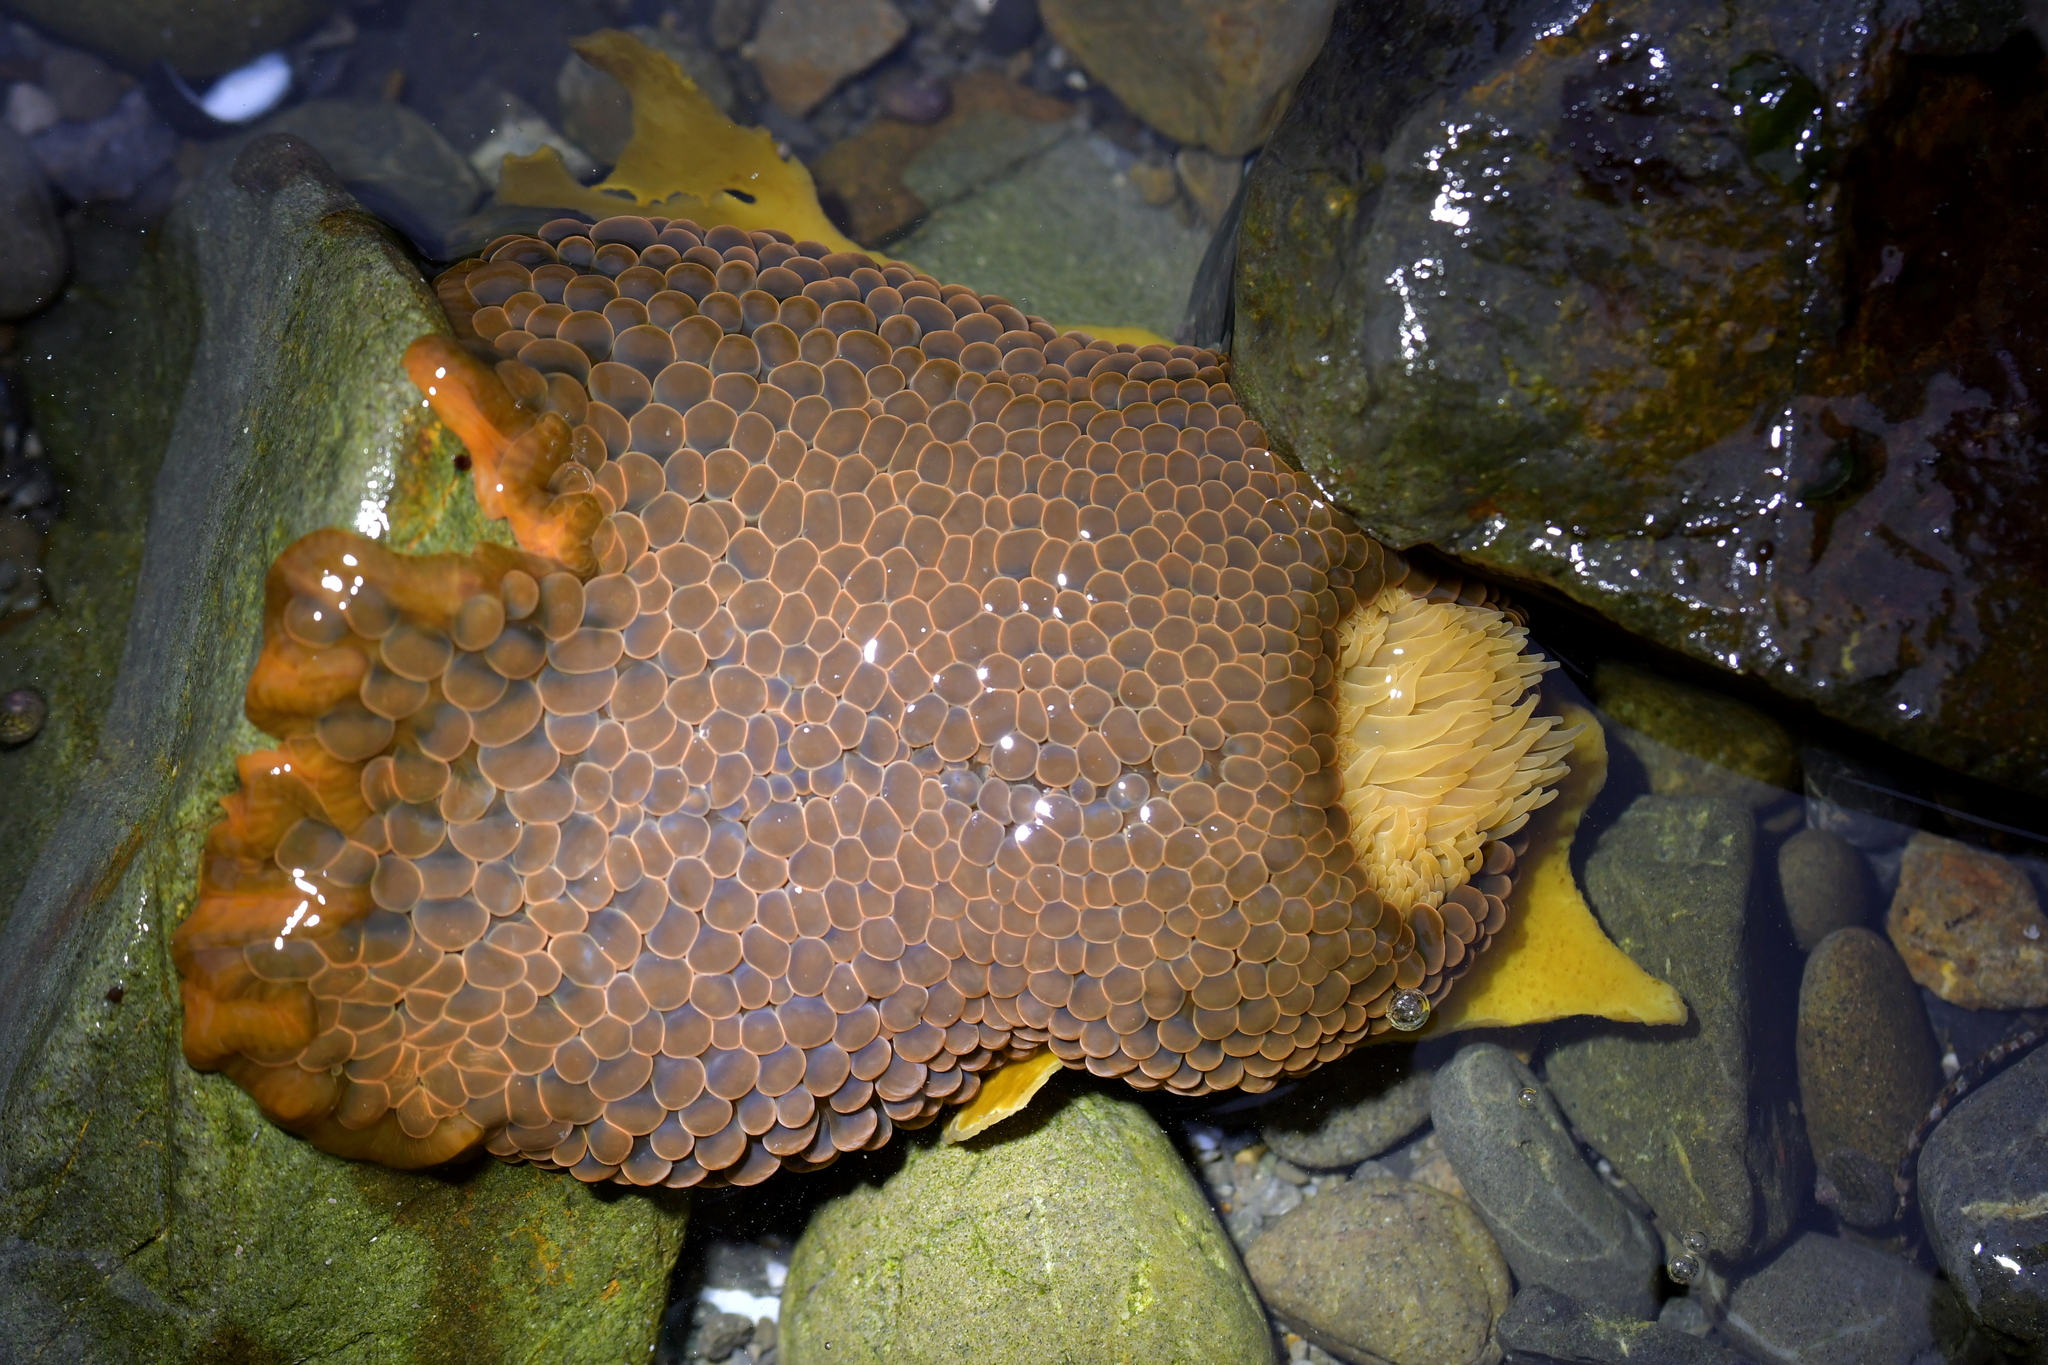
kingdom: Animalia
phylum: Cnidaria
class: Anthozoa
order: Actiniaria
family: Actiniidae
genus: Phlyctenactis
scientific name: Phlyctenactis tuberculosa
